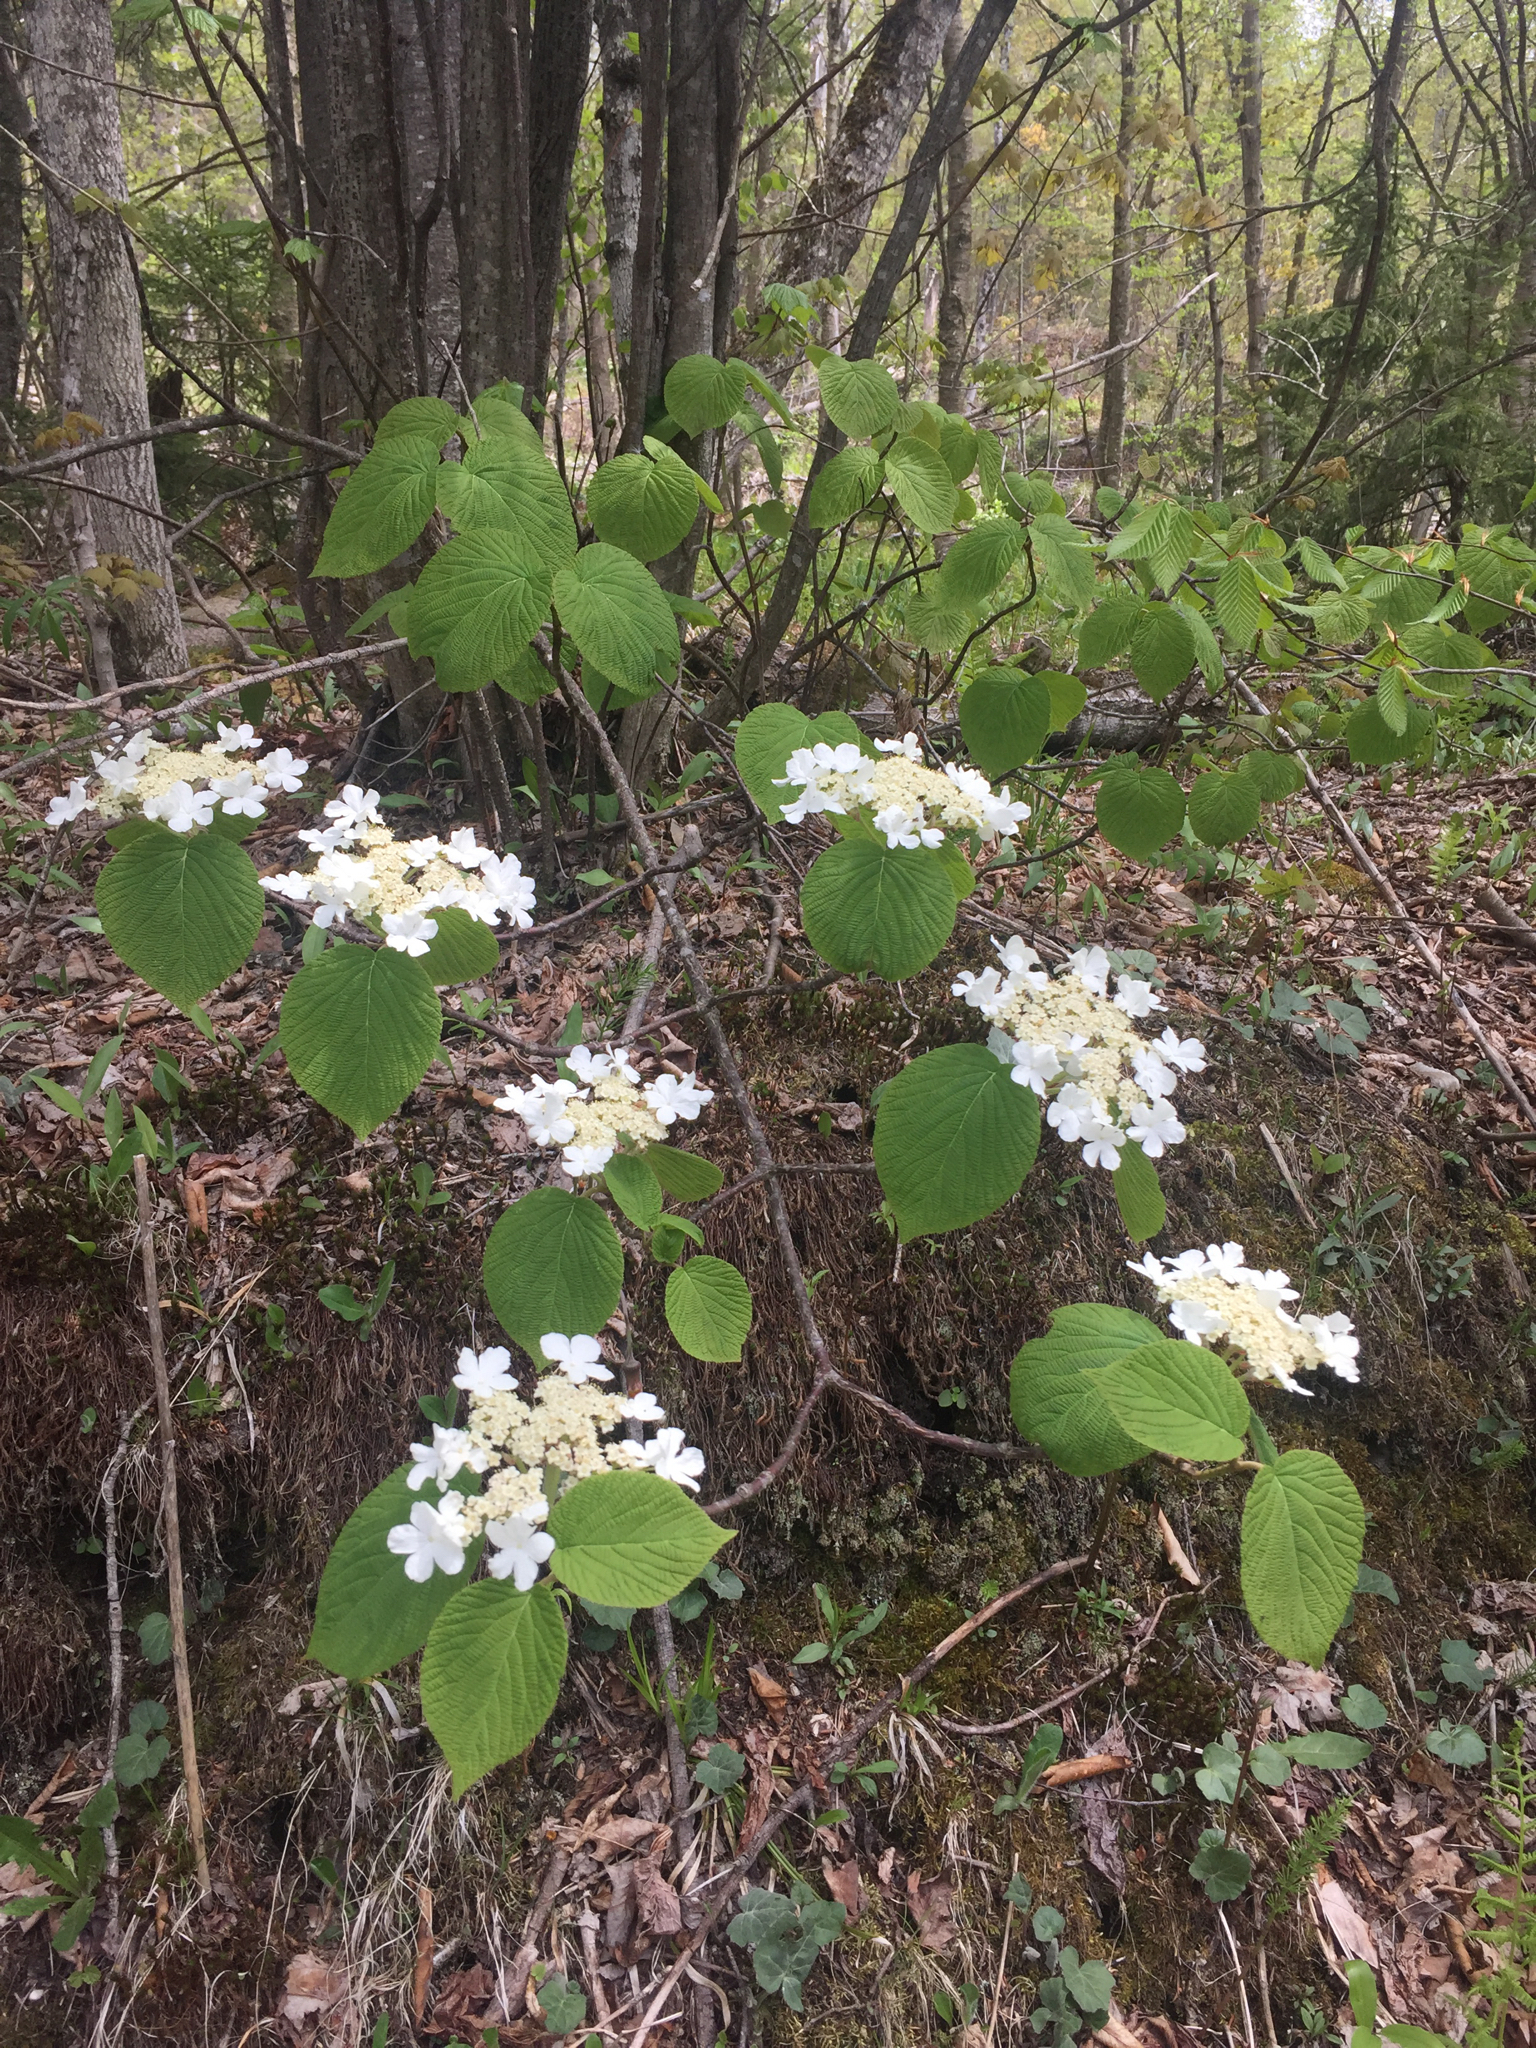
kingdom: Plantae
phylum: Tracheophyta
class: Magnoliopsida
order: Dipsacales
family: Viburnaceae
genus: Viburnum
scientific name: Viburnum lantanoides
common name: Hobblebush
